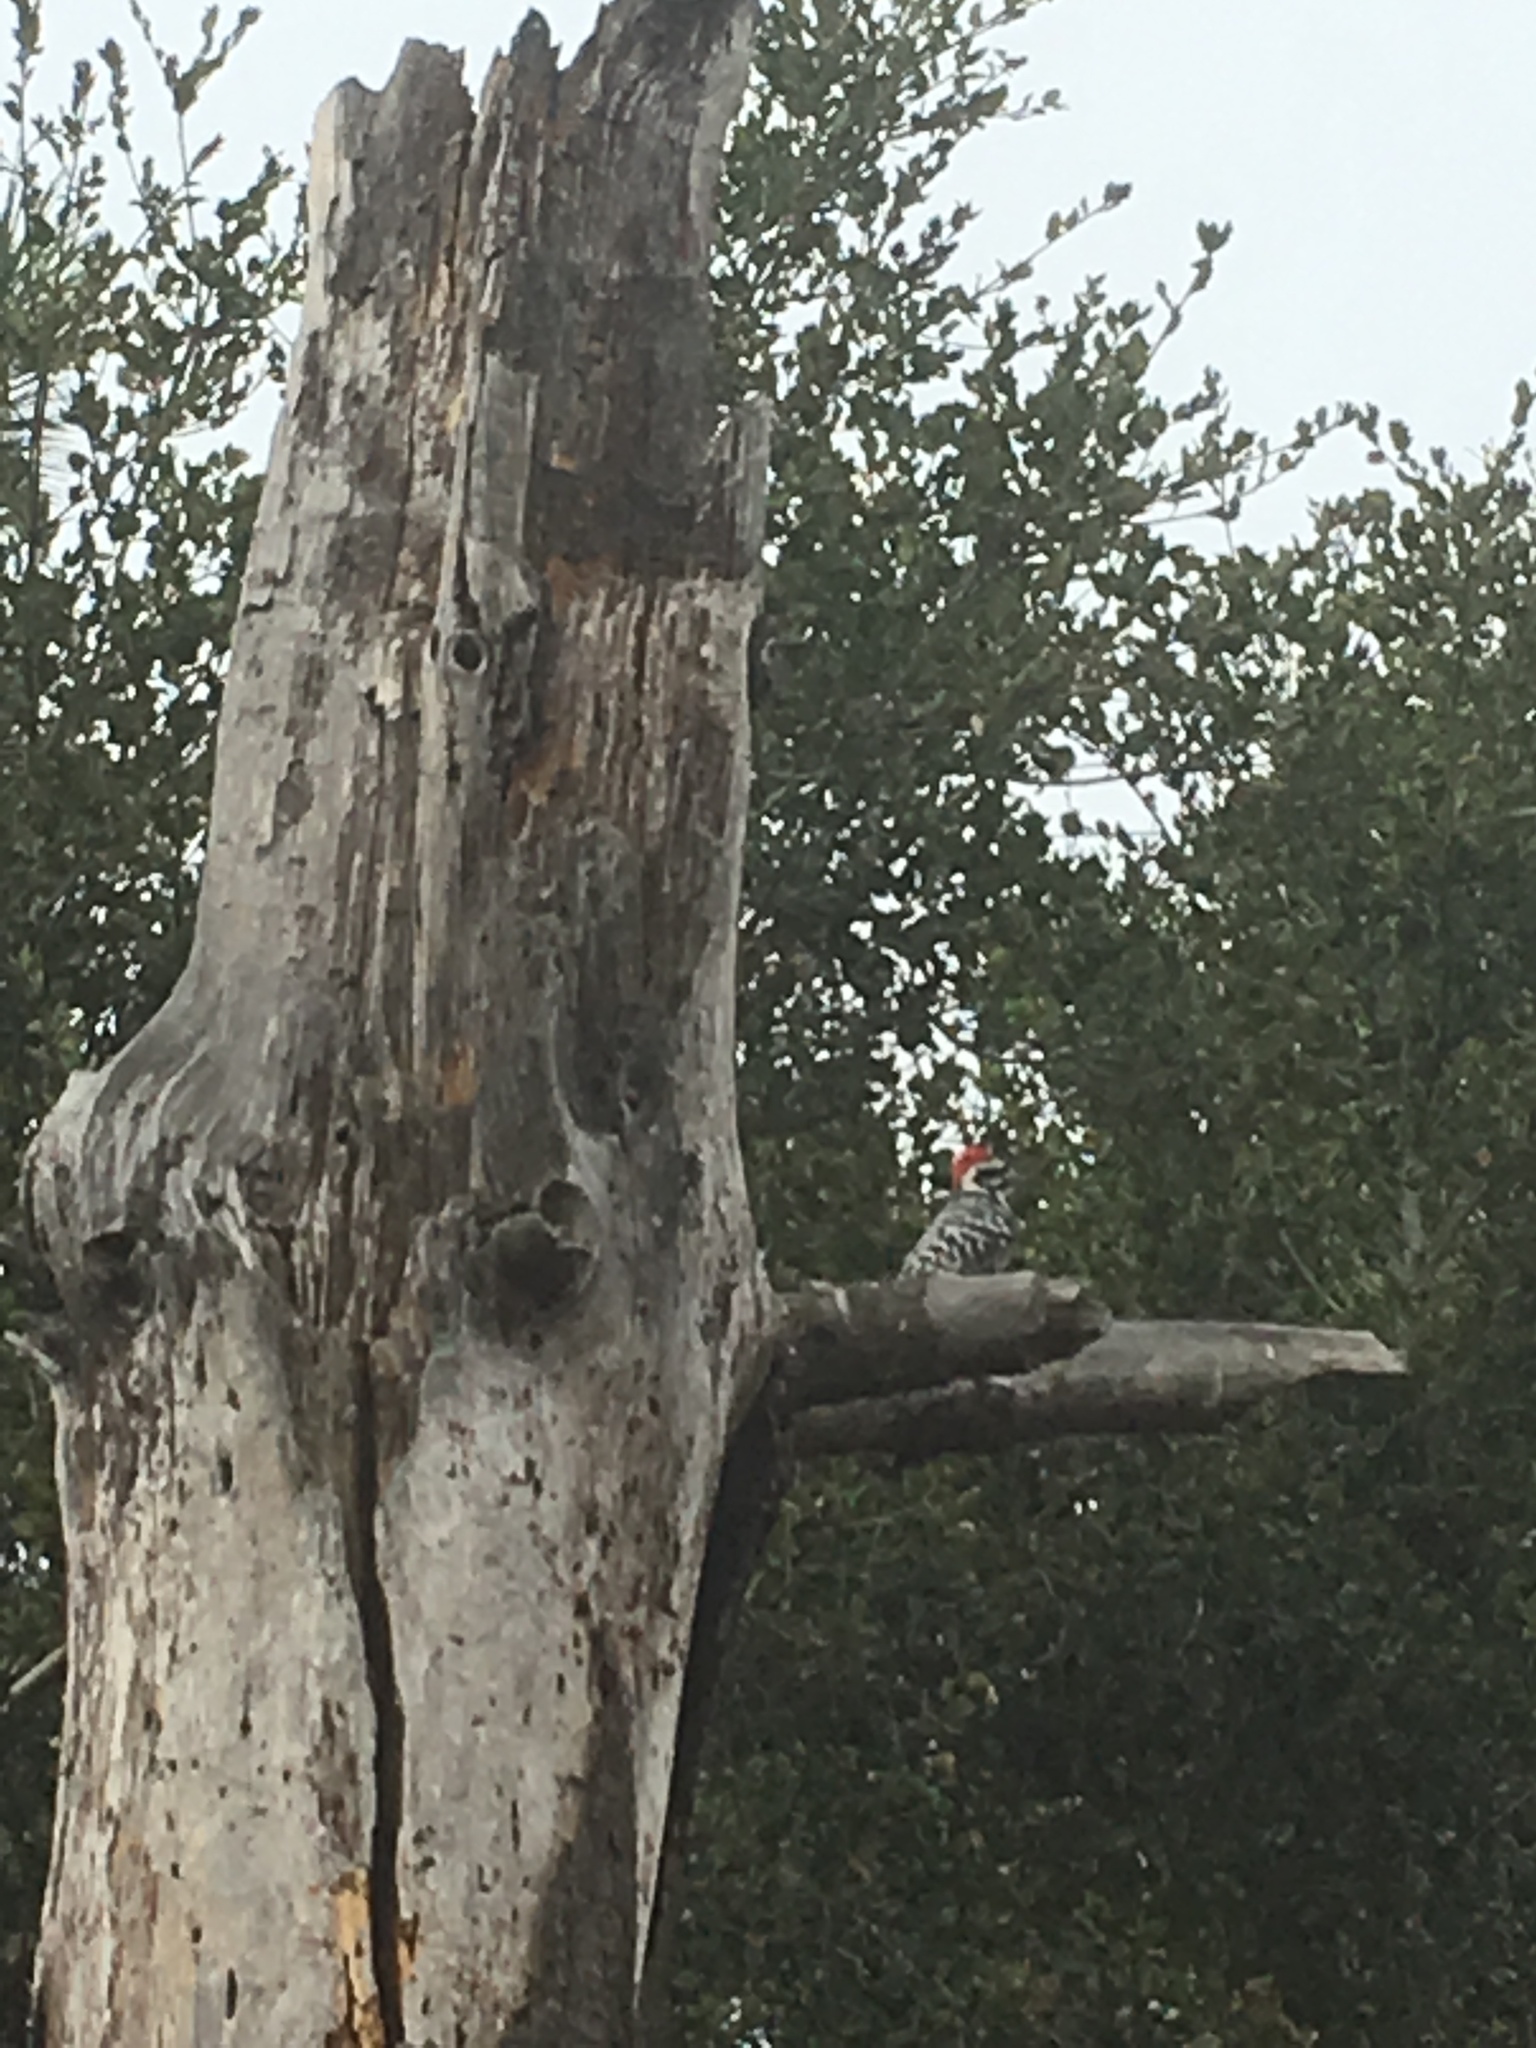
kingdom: Animalia
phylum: Chordata
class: Aves
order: Piciformes
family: Picidae
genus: Dryobates
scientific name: Dryobates nuttallii
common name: Nuttall's woodpecker
